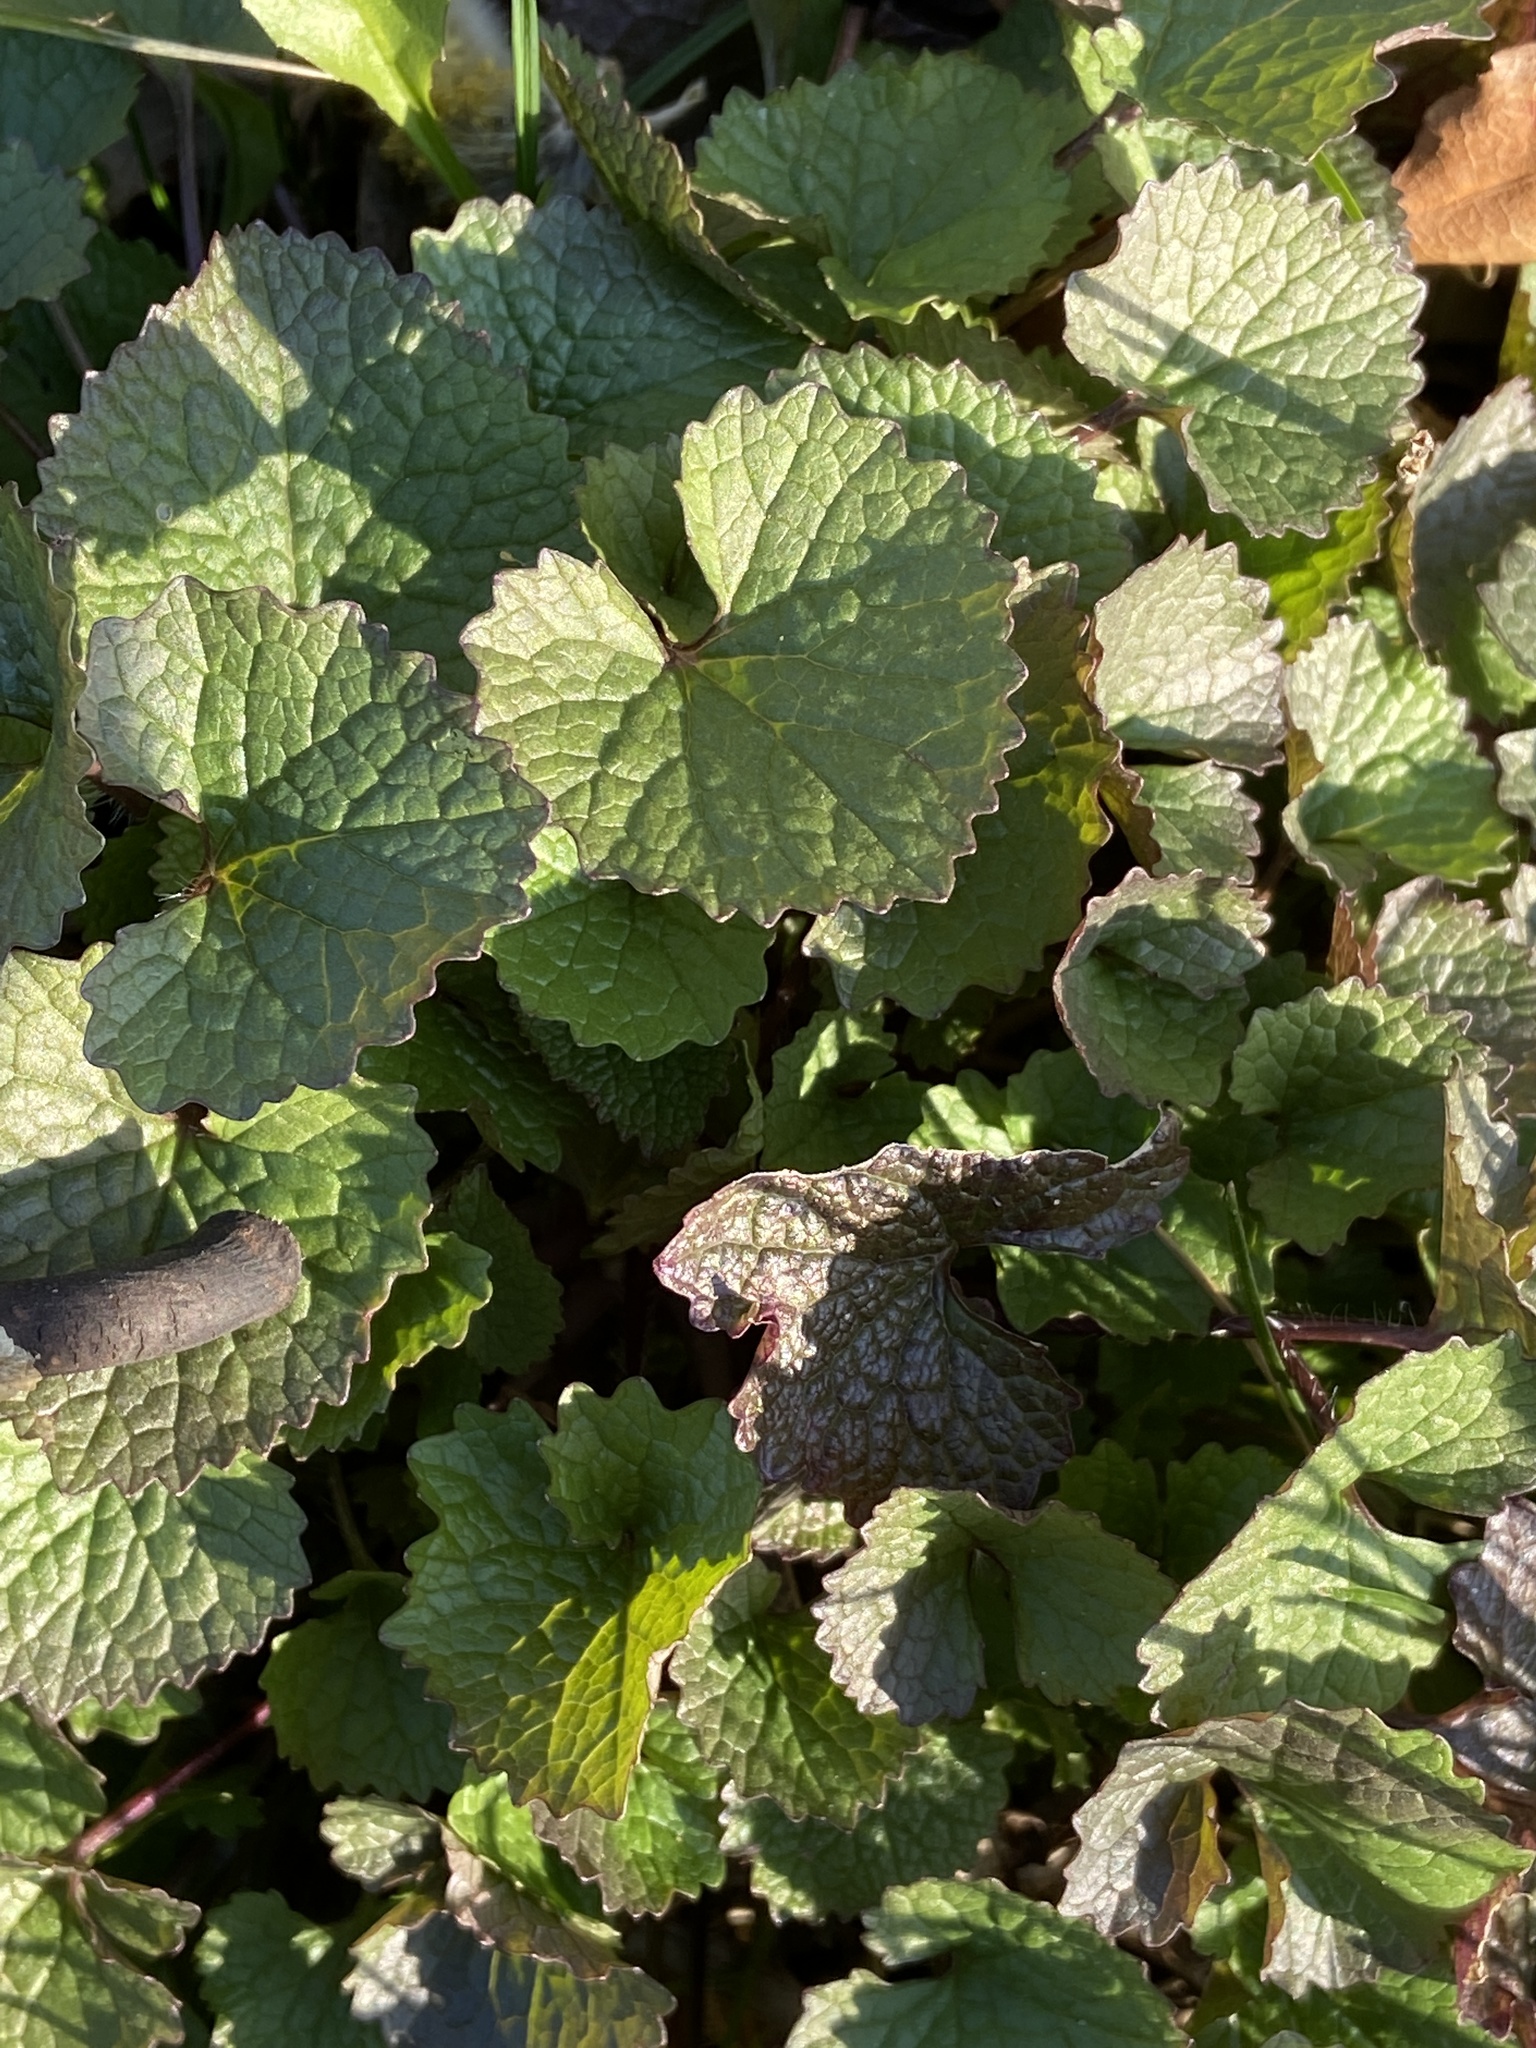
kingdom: Plantae
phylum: Tracheophyta
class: Magnoliopsida
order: Brassicales
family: Brassicaceae
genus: Alliaria
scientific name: Alliaria petiolata
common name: Garlic mustard
